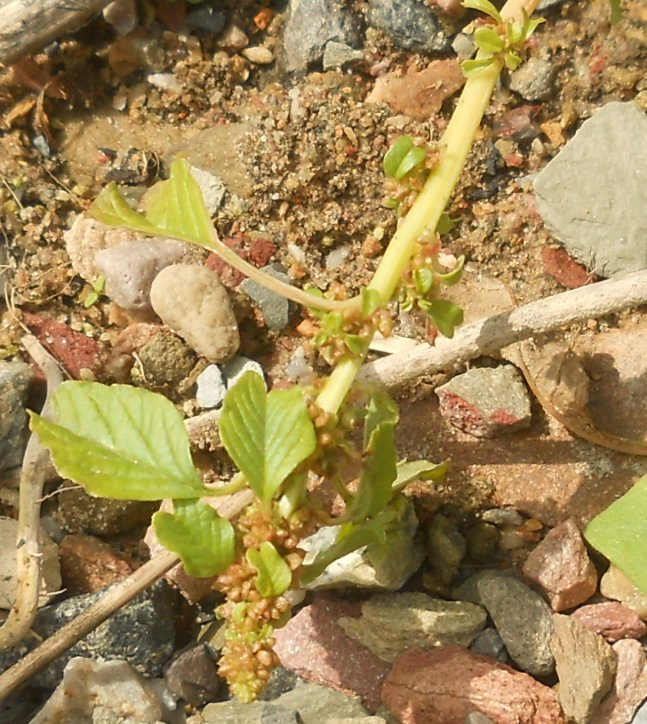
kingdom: Plantae
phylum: Tracheophyta
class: Magnoliopsida
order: Caryophyllales
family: Amaranthaceae
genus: Amaranthus
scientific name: Amaranthus blitum
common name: Purple amaranth
